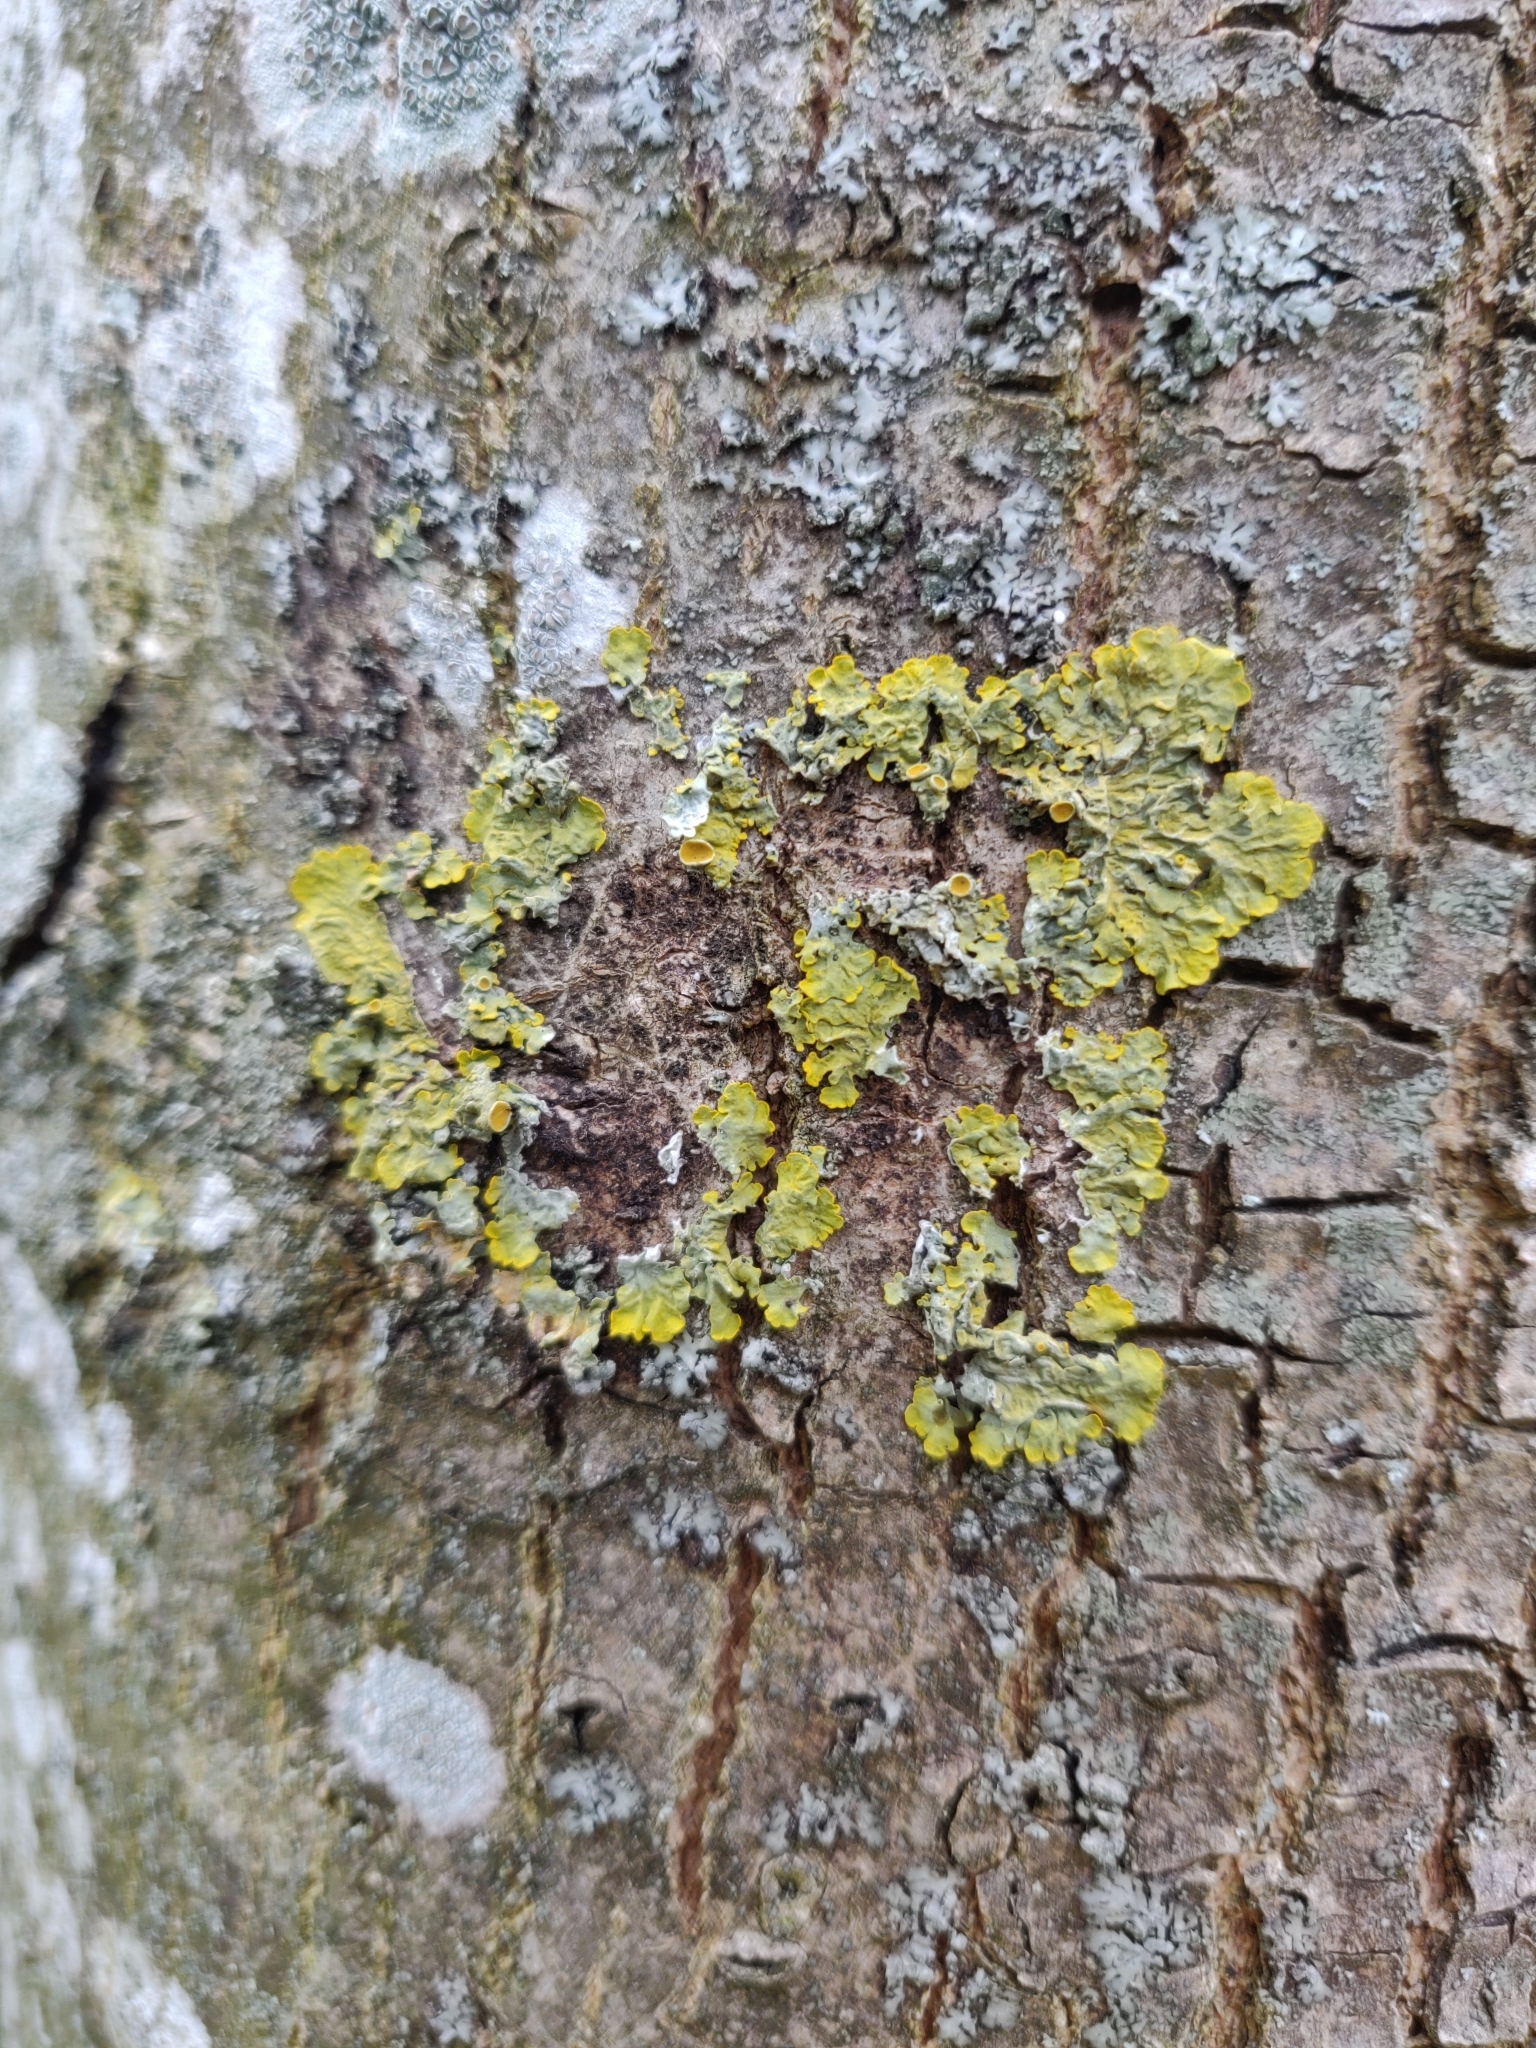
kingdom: Fungi
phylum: Ascomycota
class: Lecanoromycetes
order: Teloschistales
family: Teloschistaceae
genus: Xanthoria
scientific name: Xanthoria parietina
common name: Common orange lichen
